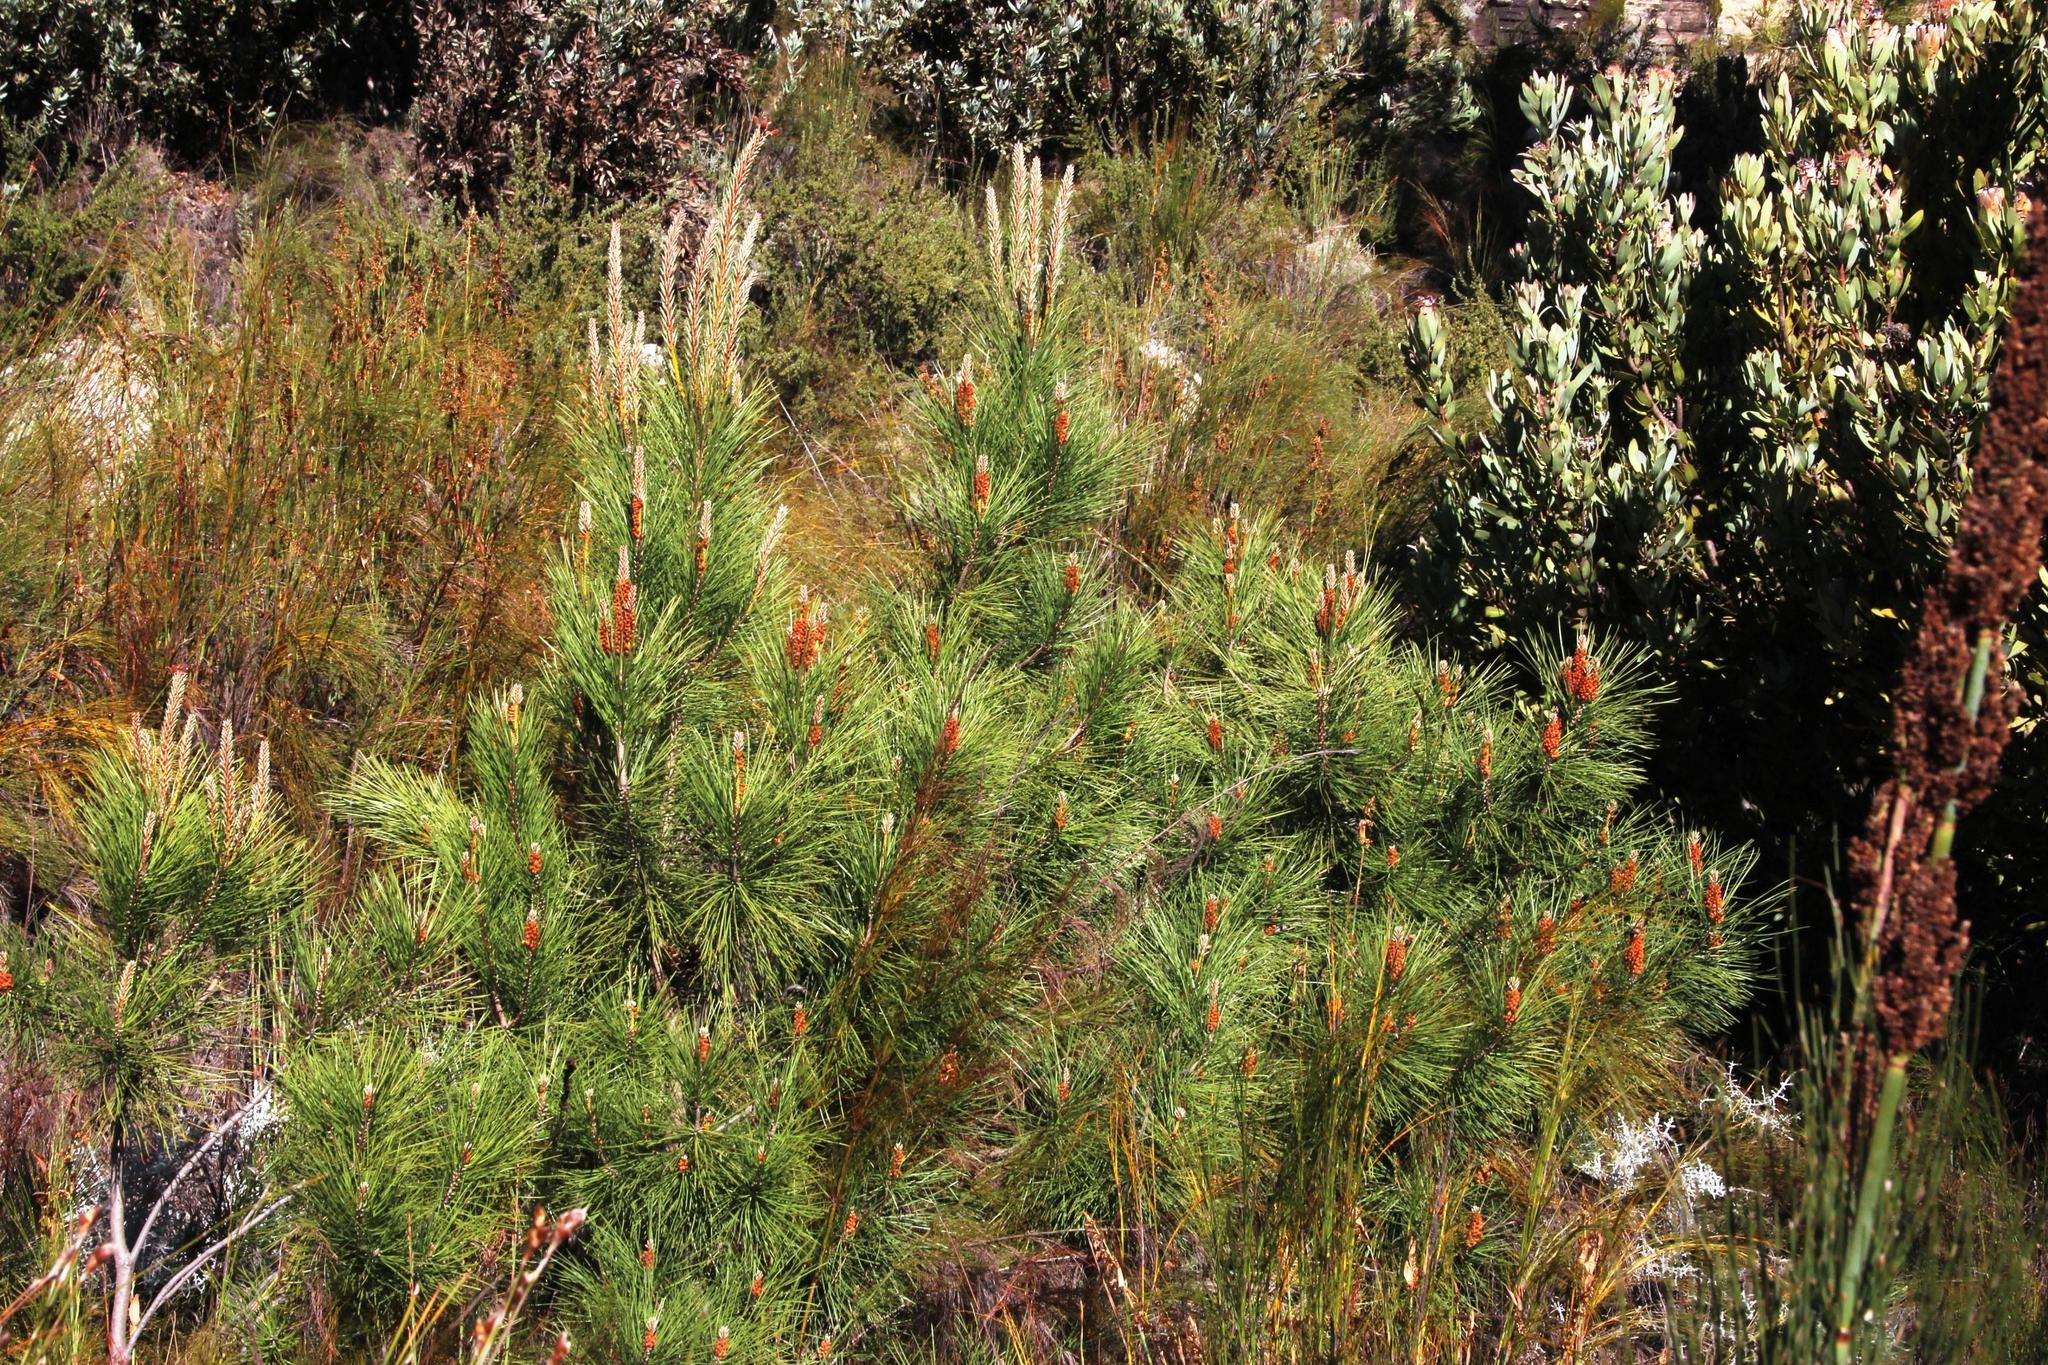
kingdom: Plantae
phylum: Tracheophyta
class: Pinopsida
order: Pinales
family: Pinaceae
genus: Pinus
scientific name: Pinus pinaster
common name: Maritime pine
